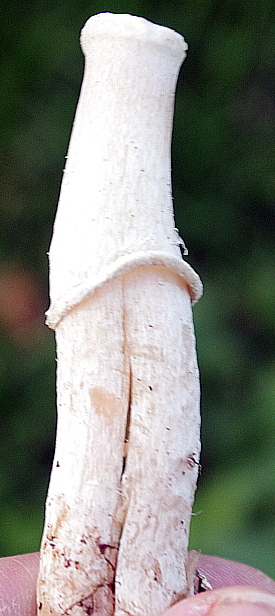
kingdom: Fungi
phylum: Basidiomycota
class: Agaricomycetes
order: Agaricales
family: Agaricaceae
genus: Leucoagaricus
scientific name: Leucoagaricus leucothites
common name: White dapperling
